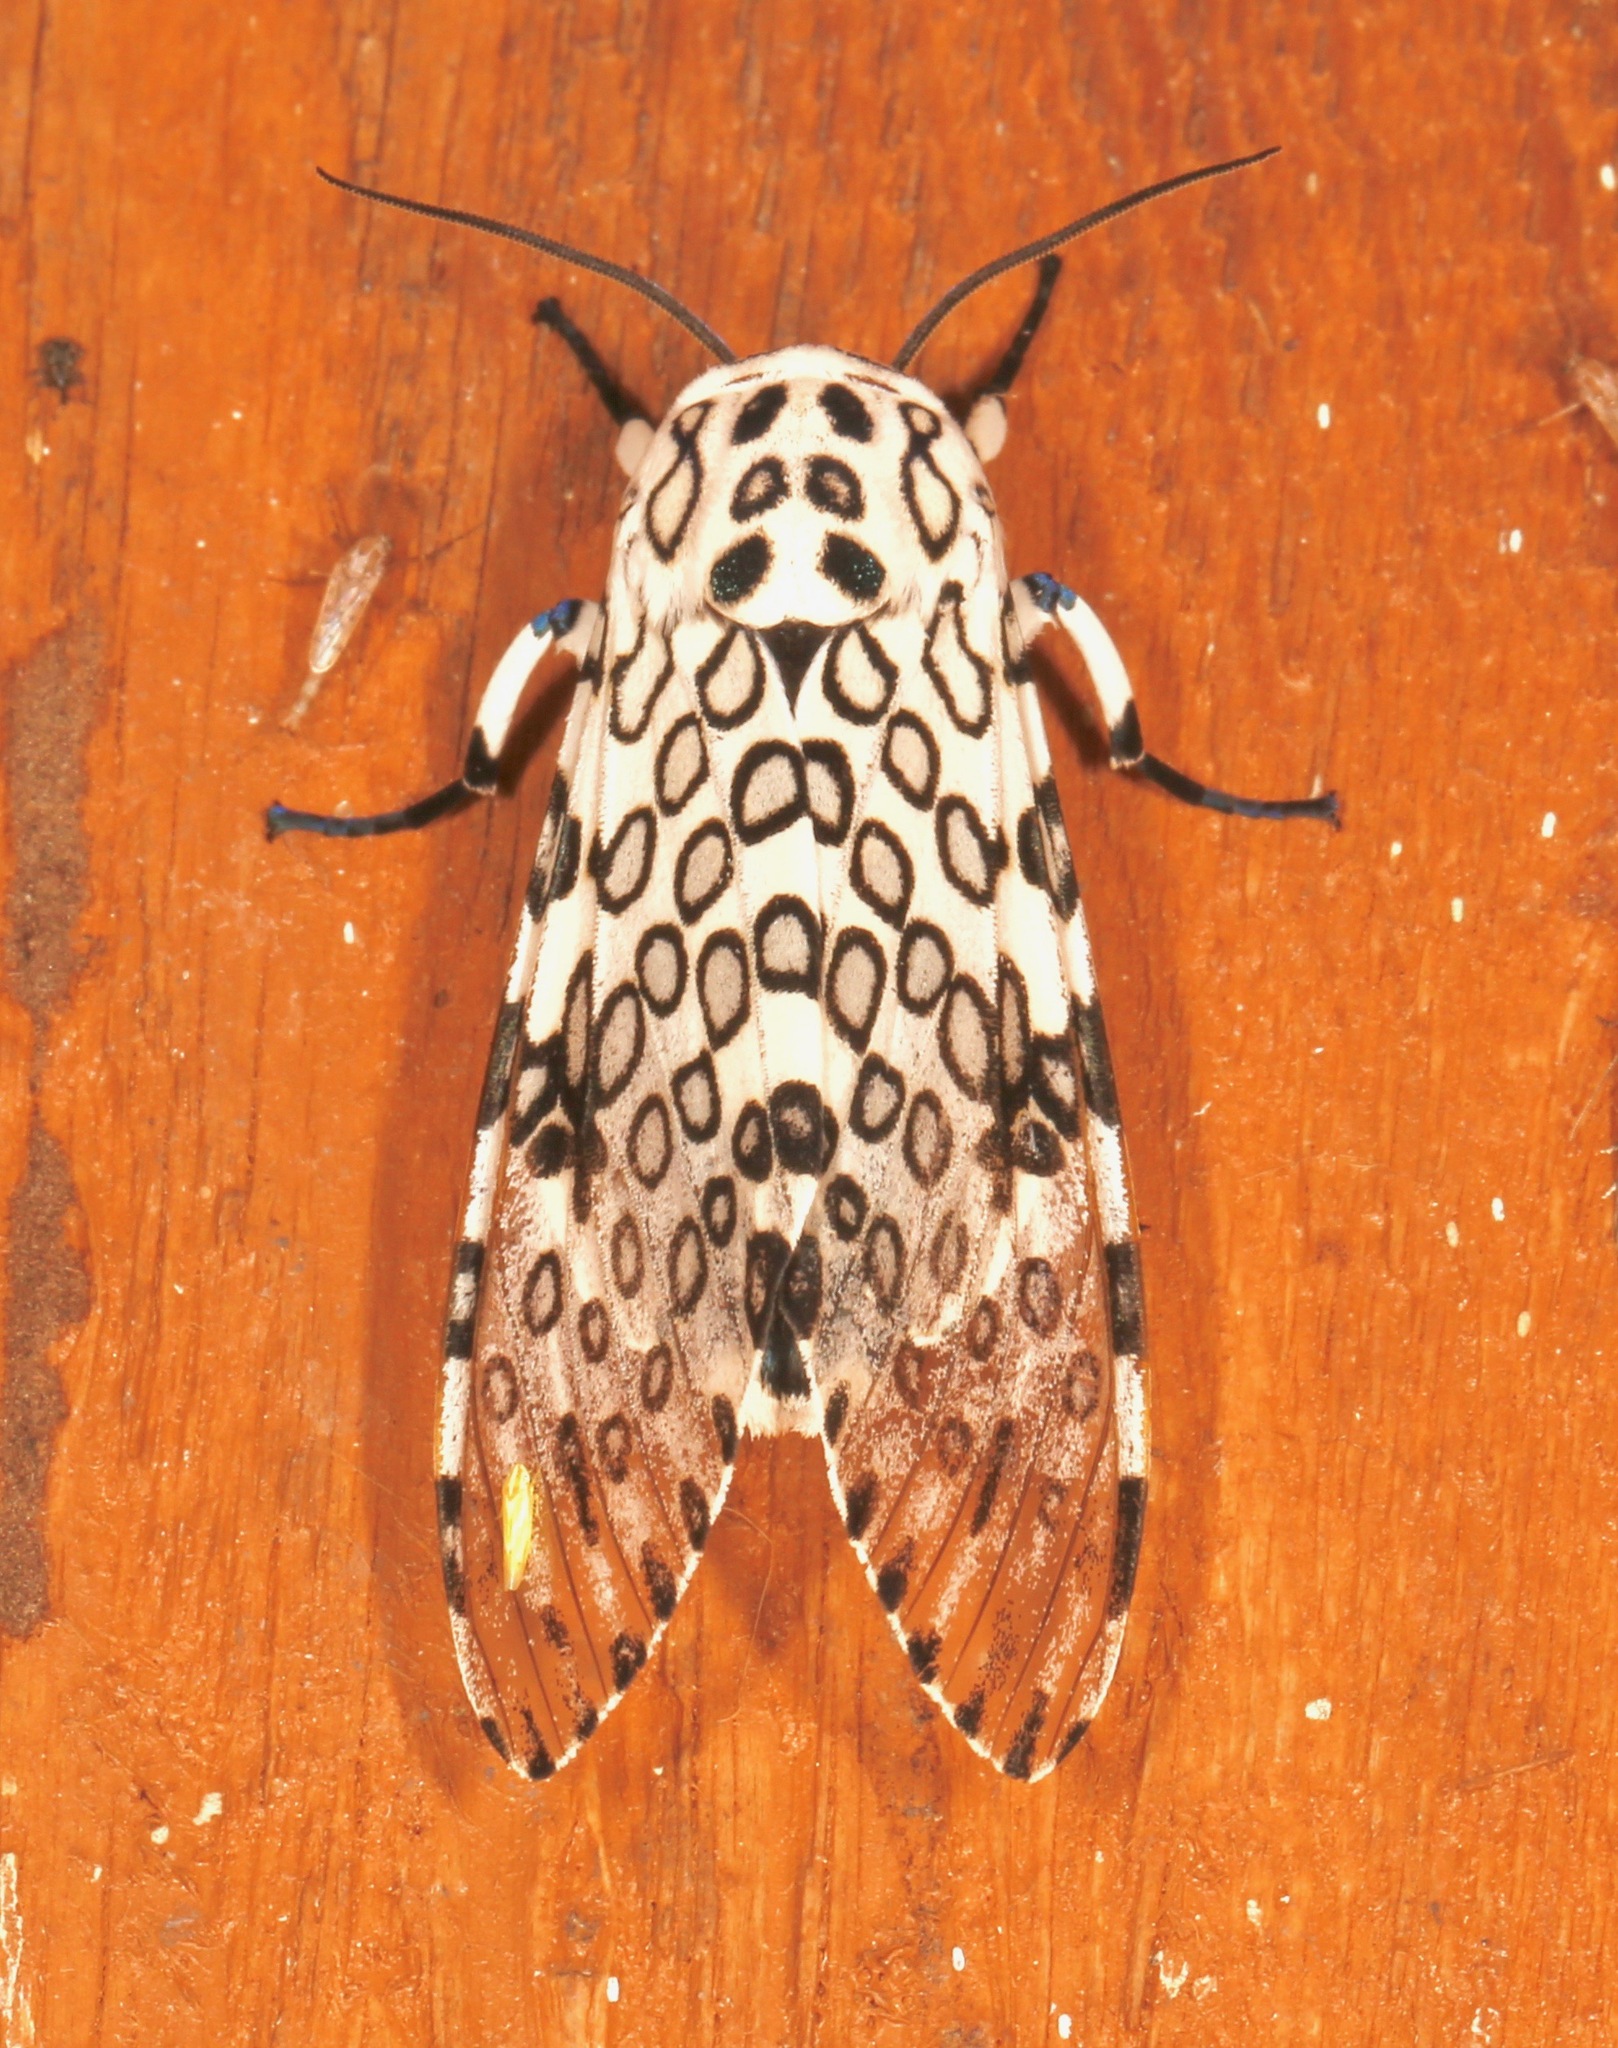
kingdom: Animalia
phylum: Arthropoda
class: Insecta
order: Lepidoptera
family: Erebidae
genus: Hypercompe
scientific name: Hypercompe scribonia
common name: Giant leopard moth
